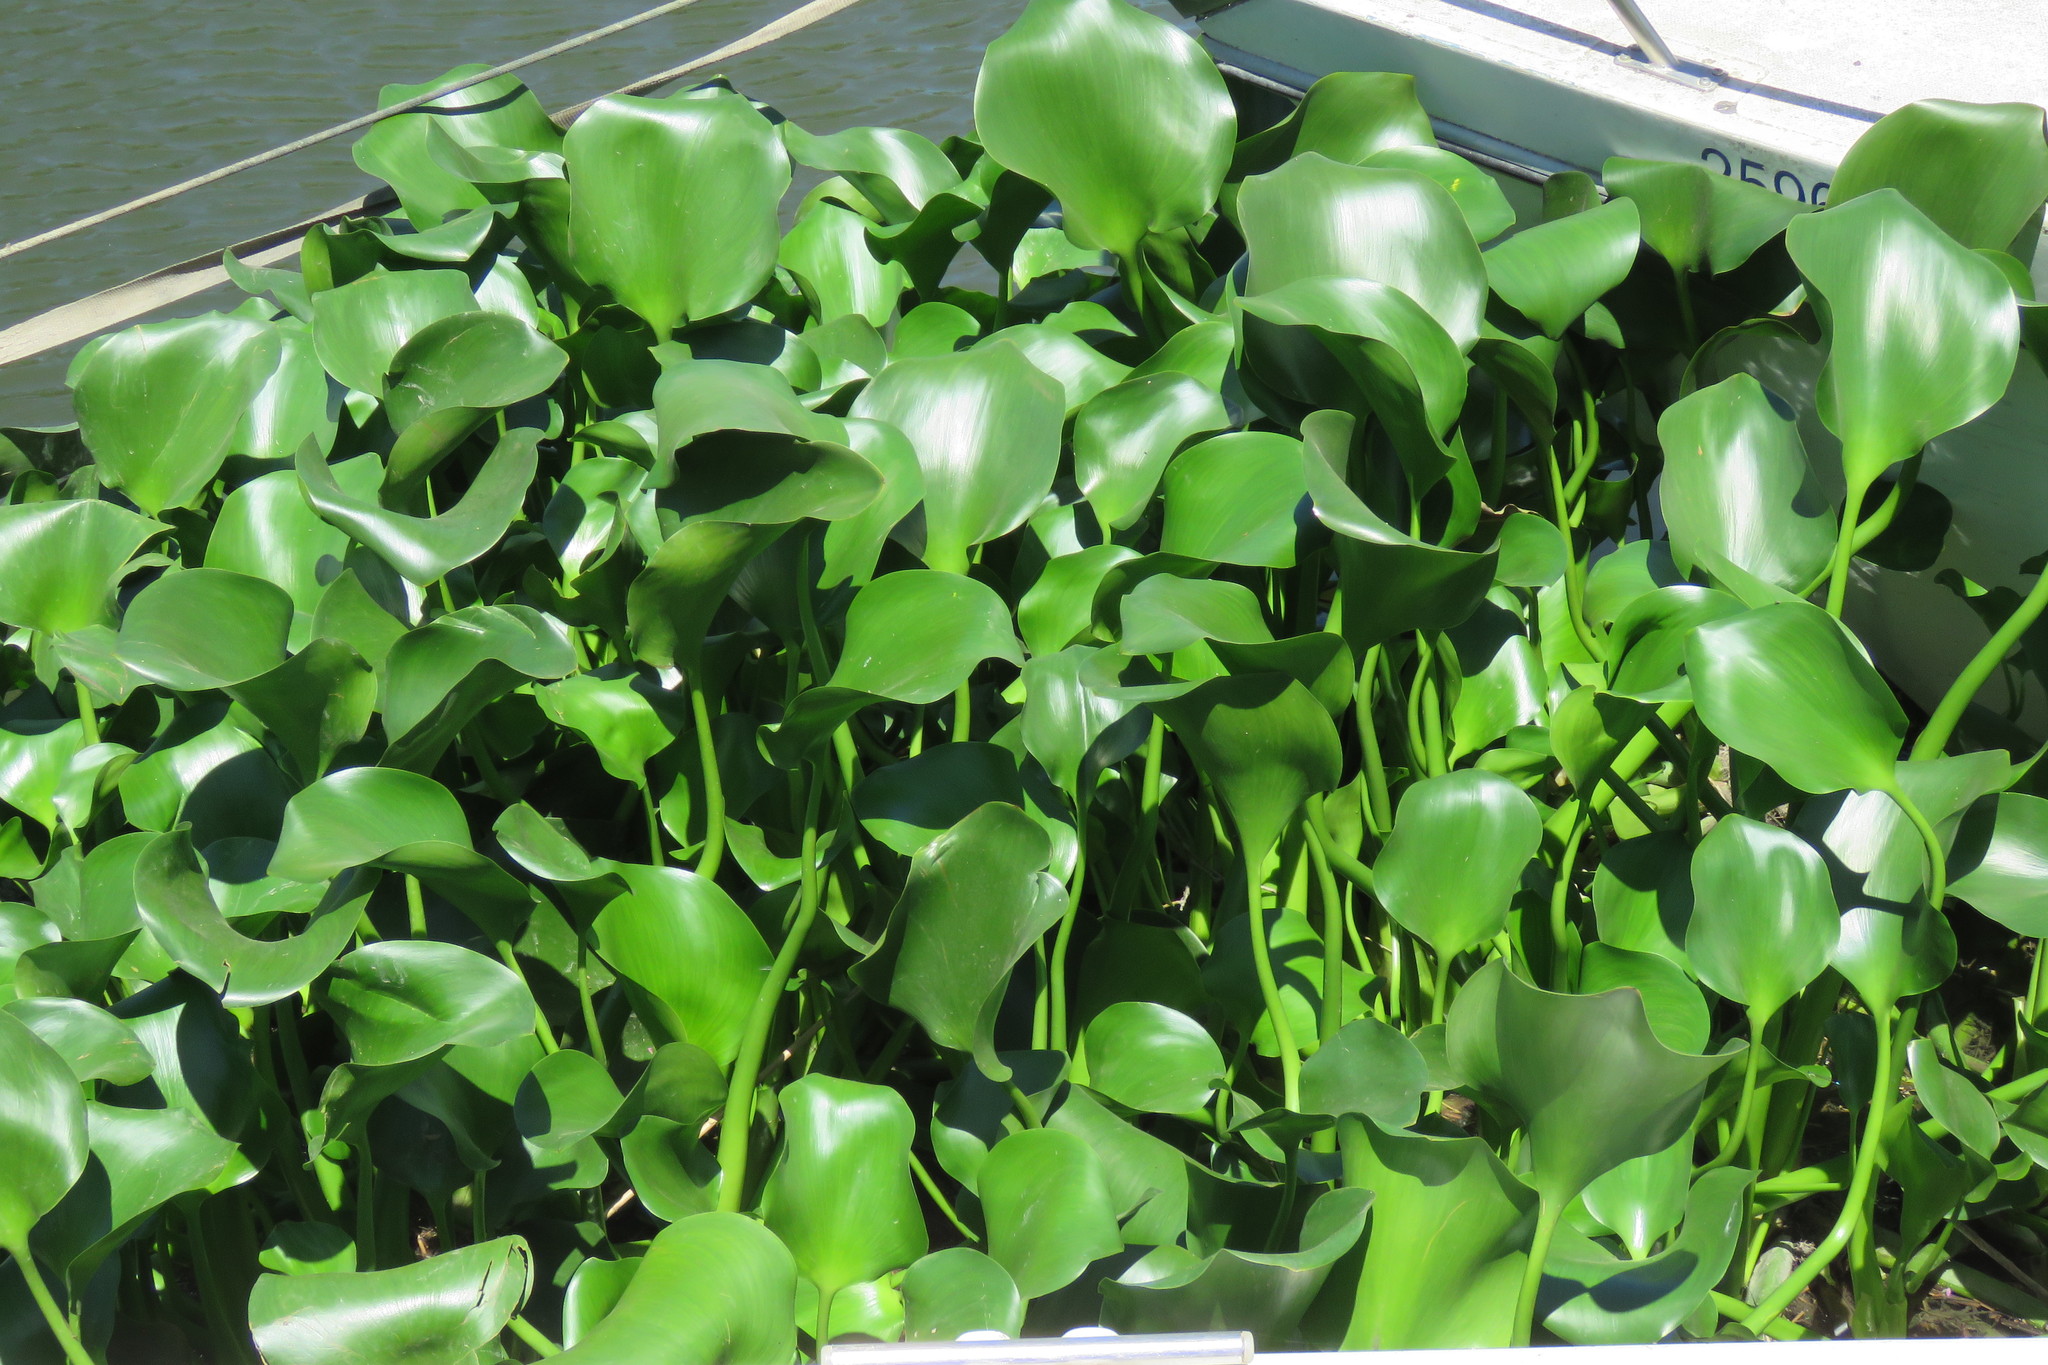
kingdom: Plantae
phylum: Tracheophyta
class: Liliopsida
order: Commelinales
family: Pontederiaceae
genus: Pontederia
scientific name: Pontederia crassipes
